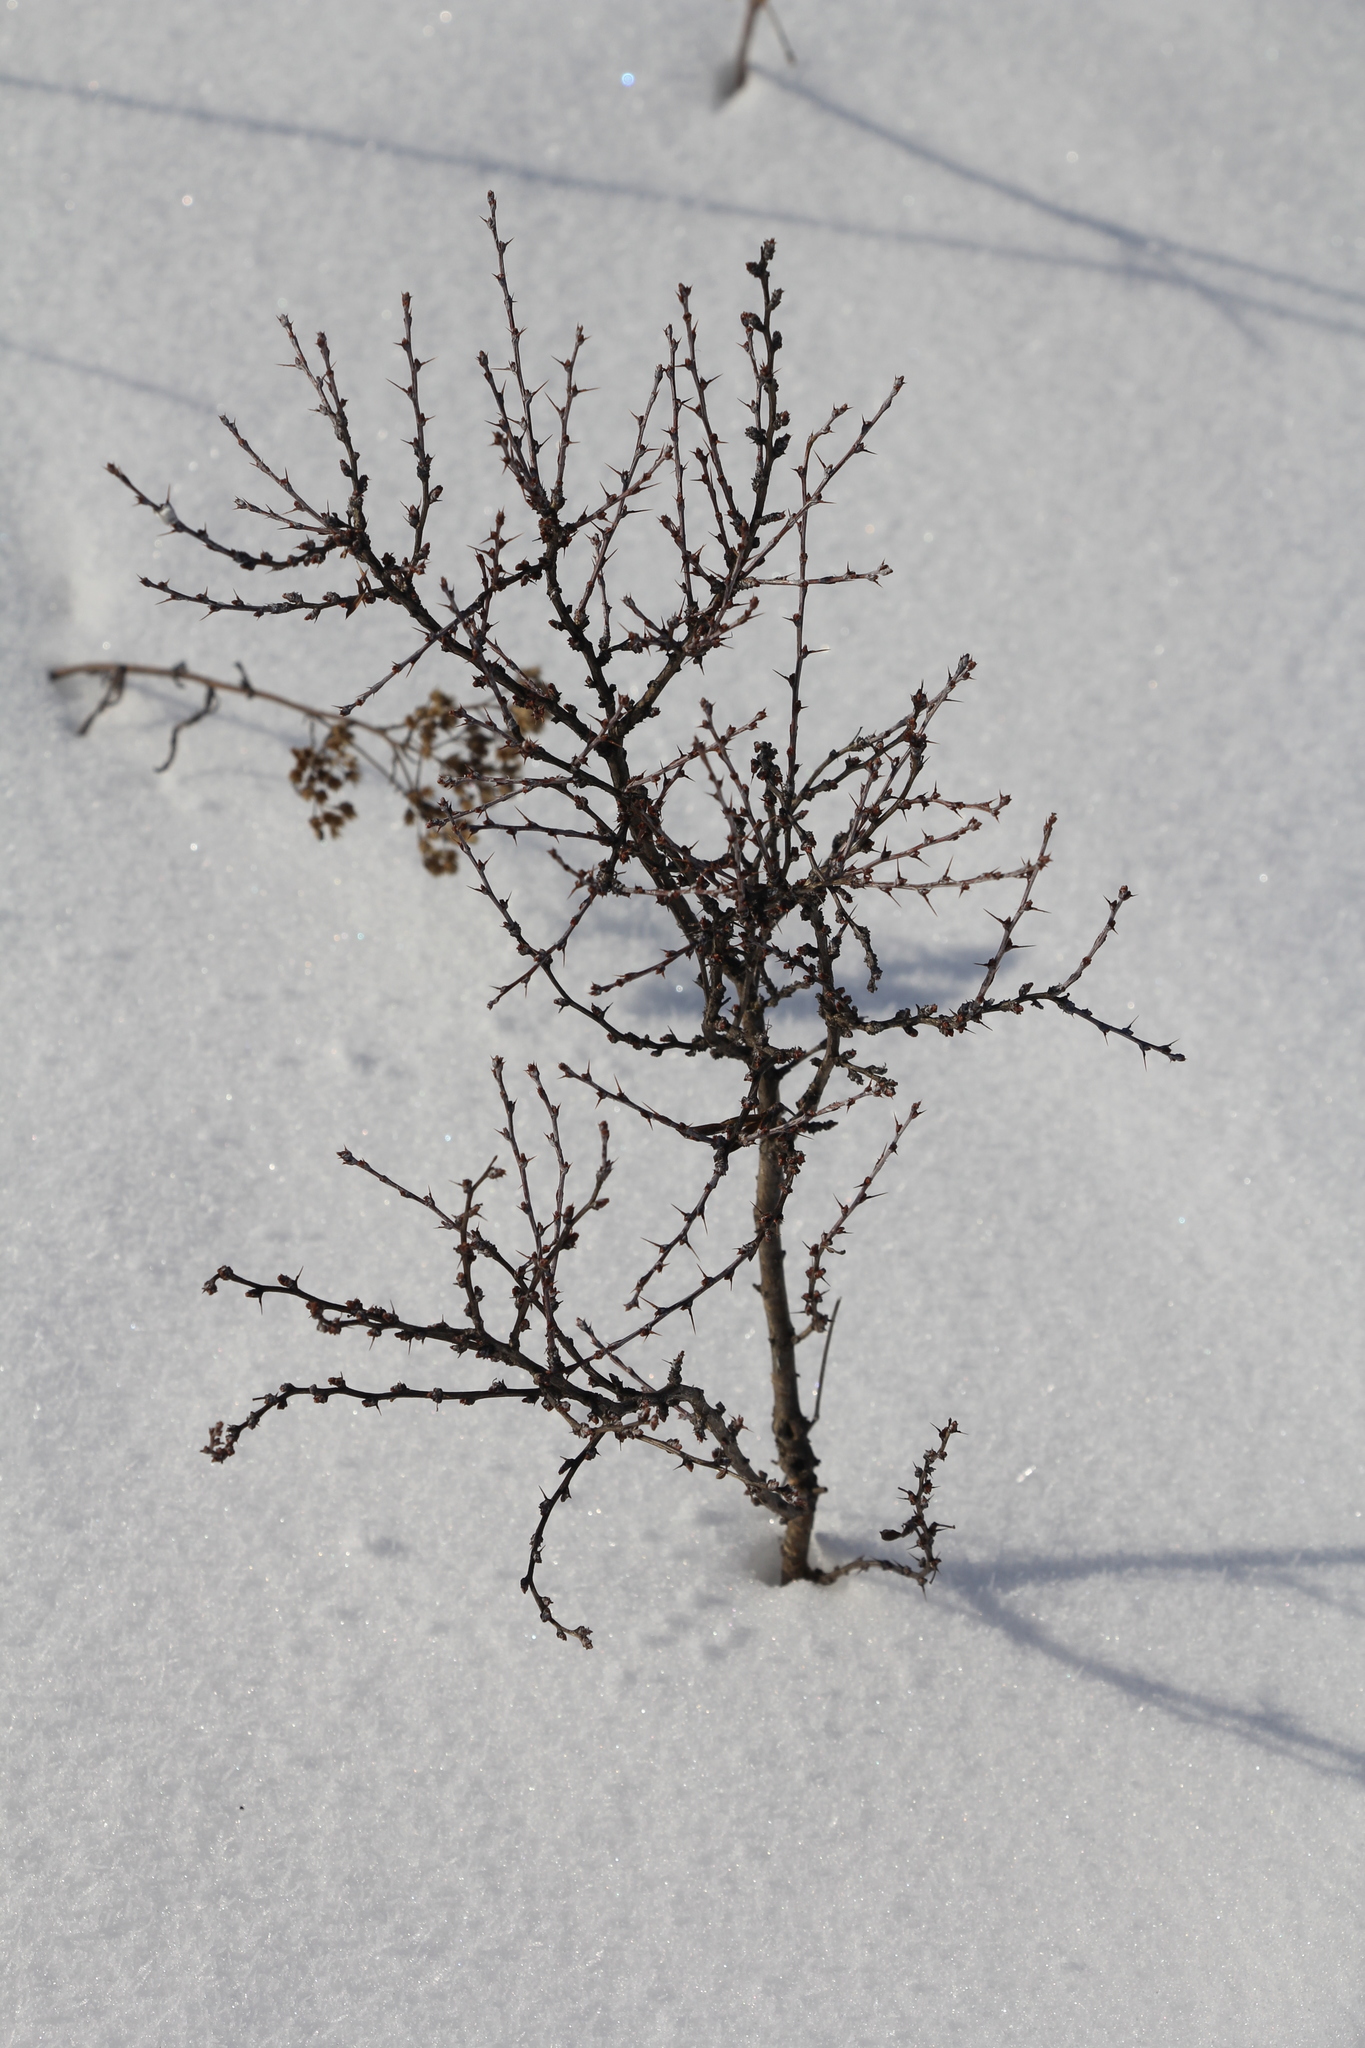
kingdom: Plantae
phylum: Tracheophyta
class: Magnoliopsida
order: Fabales
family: Fabaceae
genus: Caragana
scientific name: Caragana pygmaea
